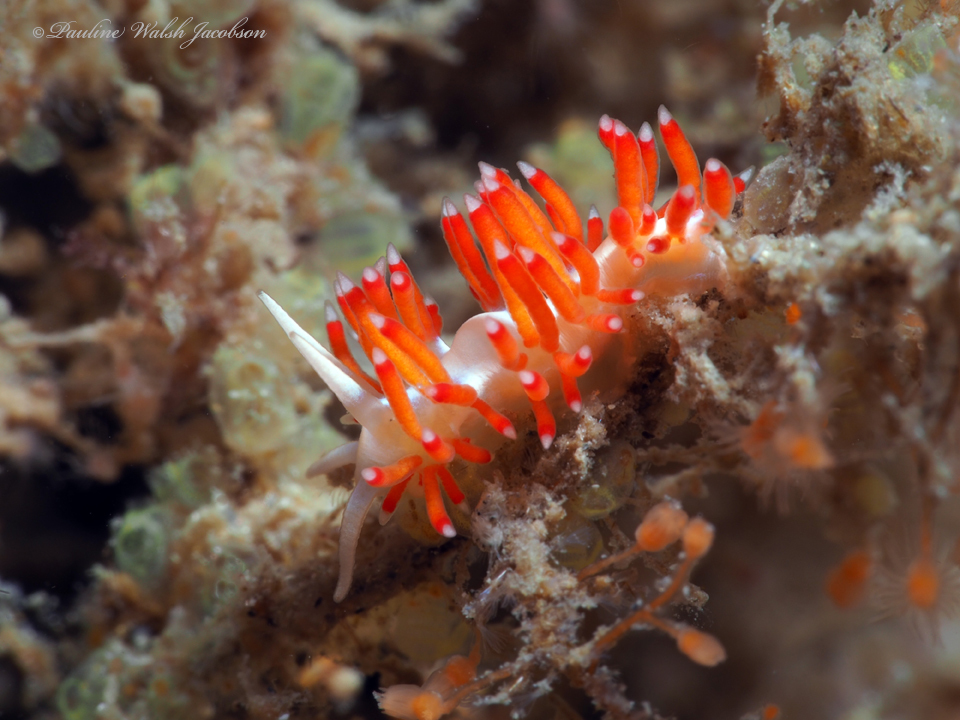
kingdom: Animalia
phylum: Mollusca
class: Gastropoda
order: Nudibranchia
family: Flabellinidae
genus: Flabellina
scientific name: Flabellina dushia
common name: Dushia flabellina
